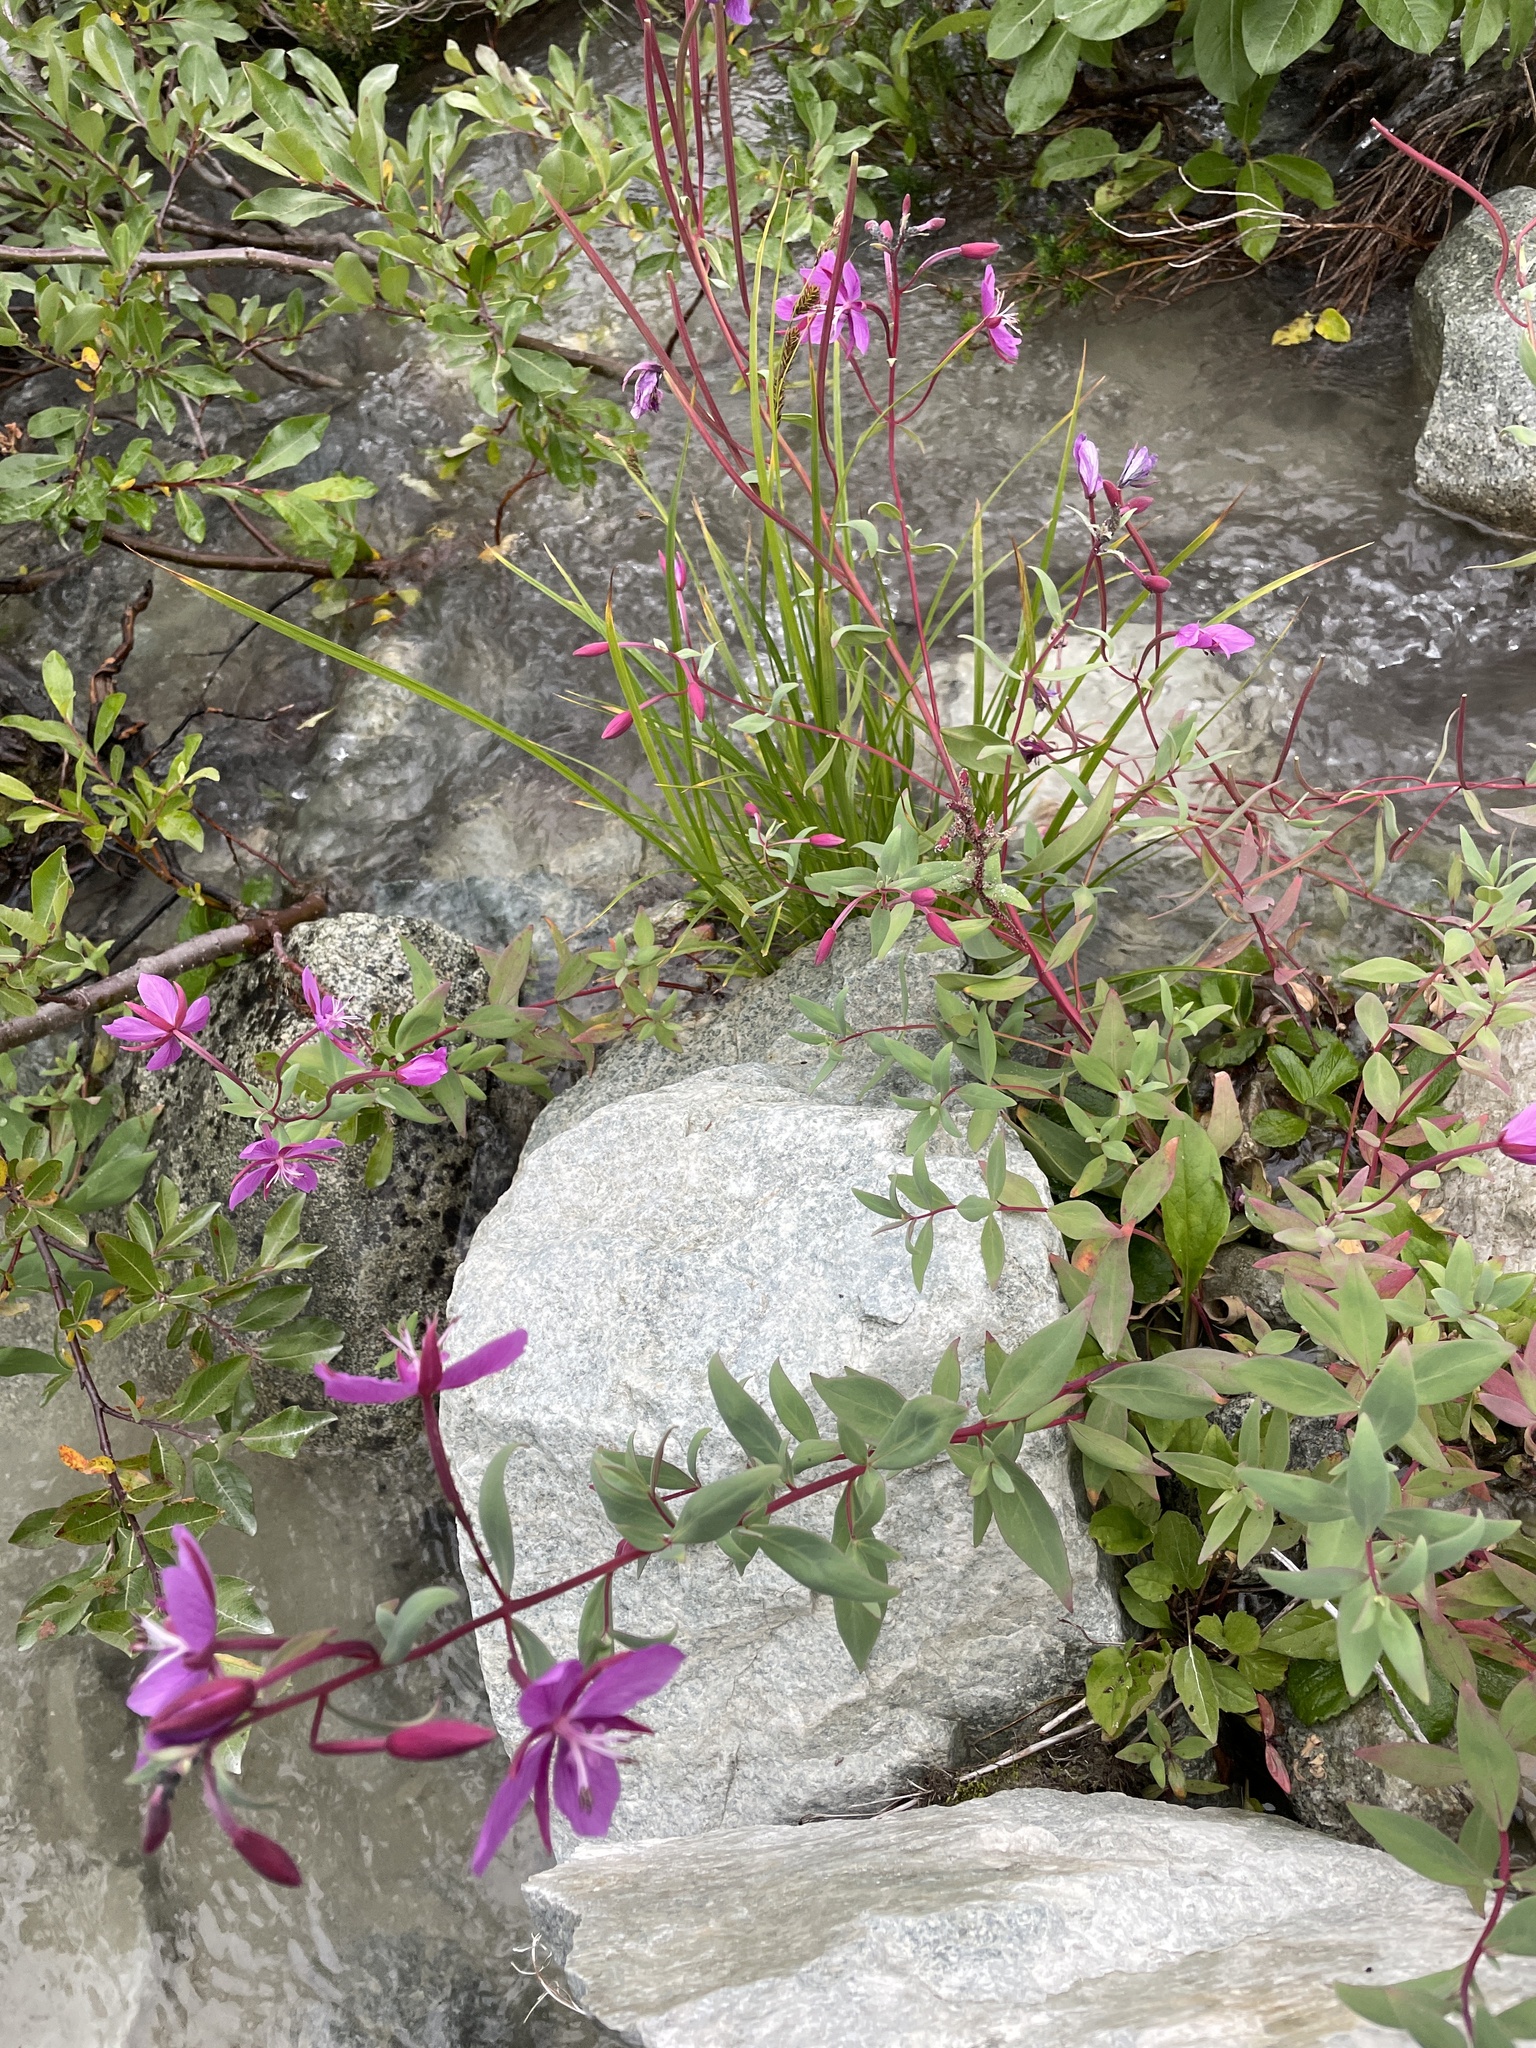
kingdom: Plantae
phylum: Tracheophyta
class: Magnoliopsida
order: Myrtales
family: Onagraceae
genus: Chamaenerion
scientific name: Chamaenerion latifolium
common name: Dwarf fireweed
